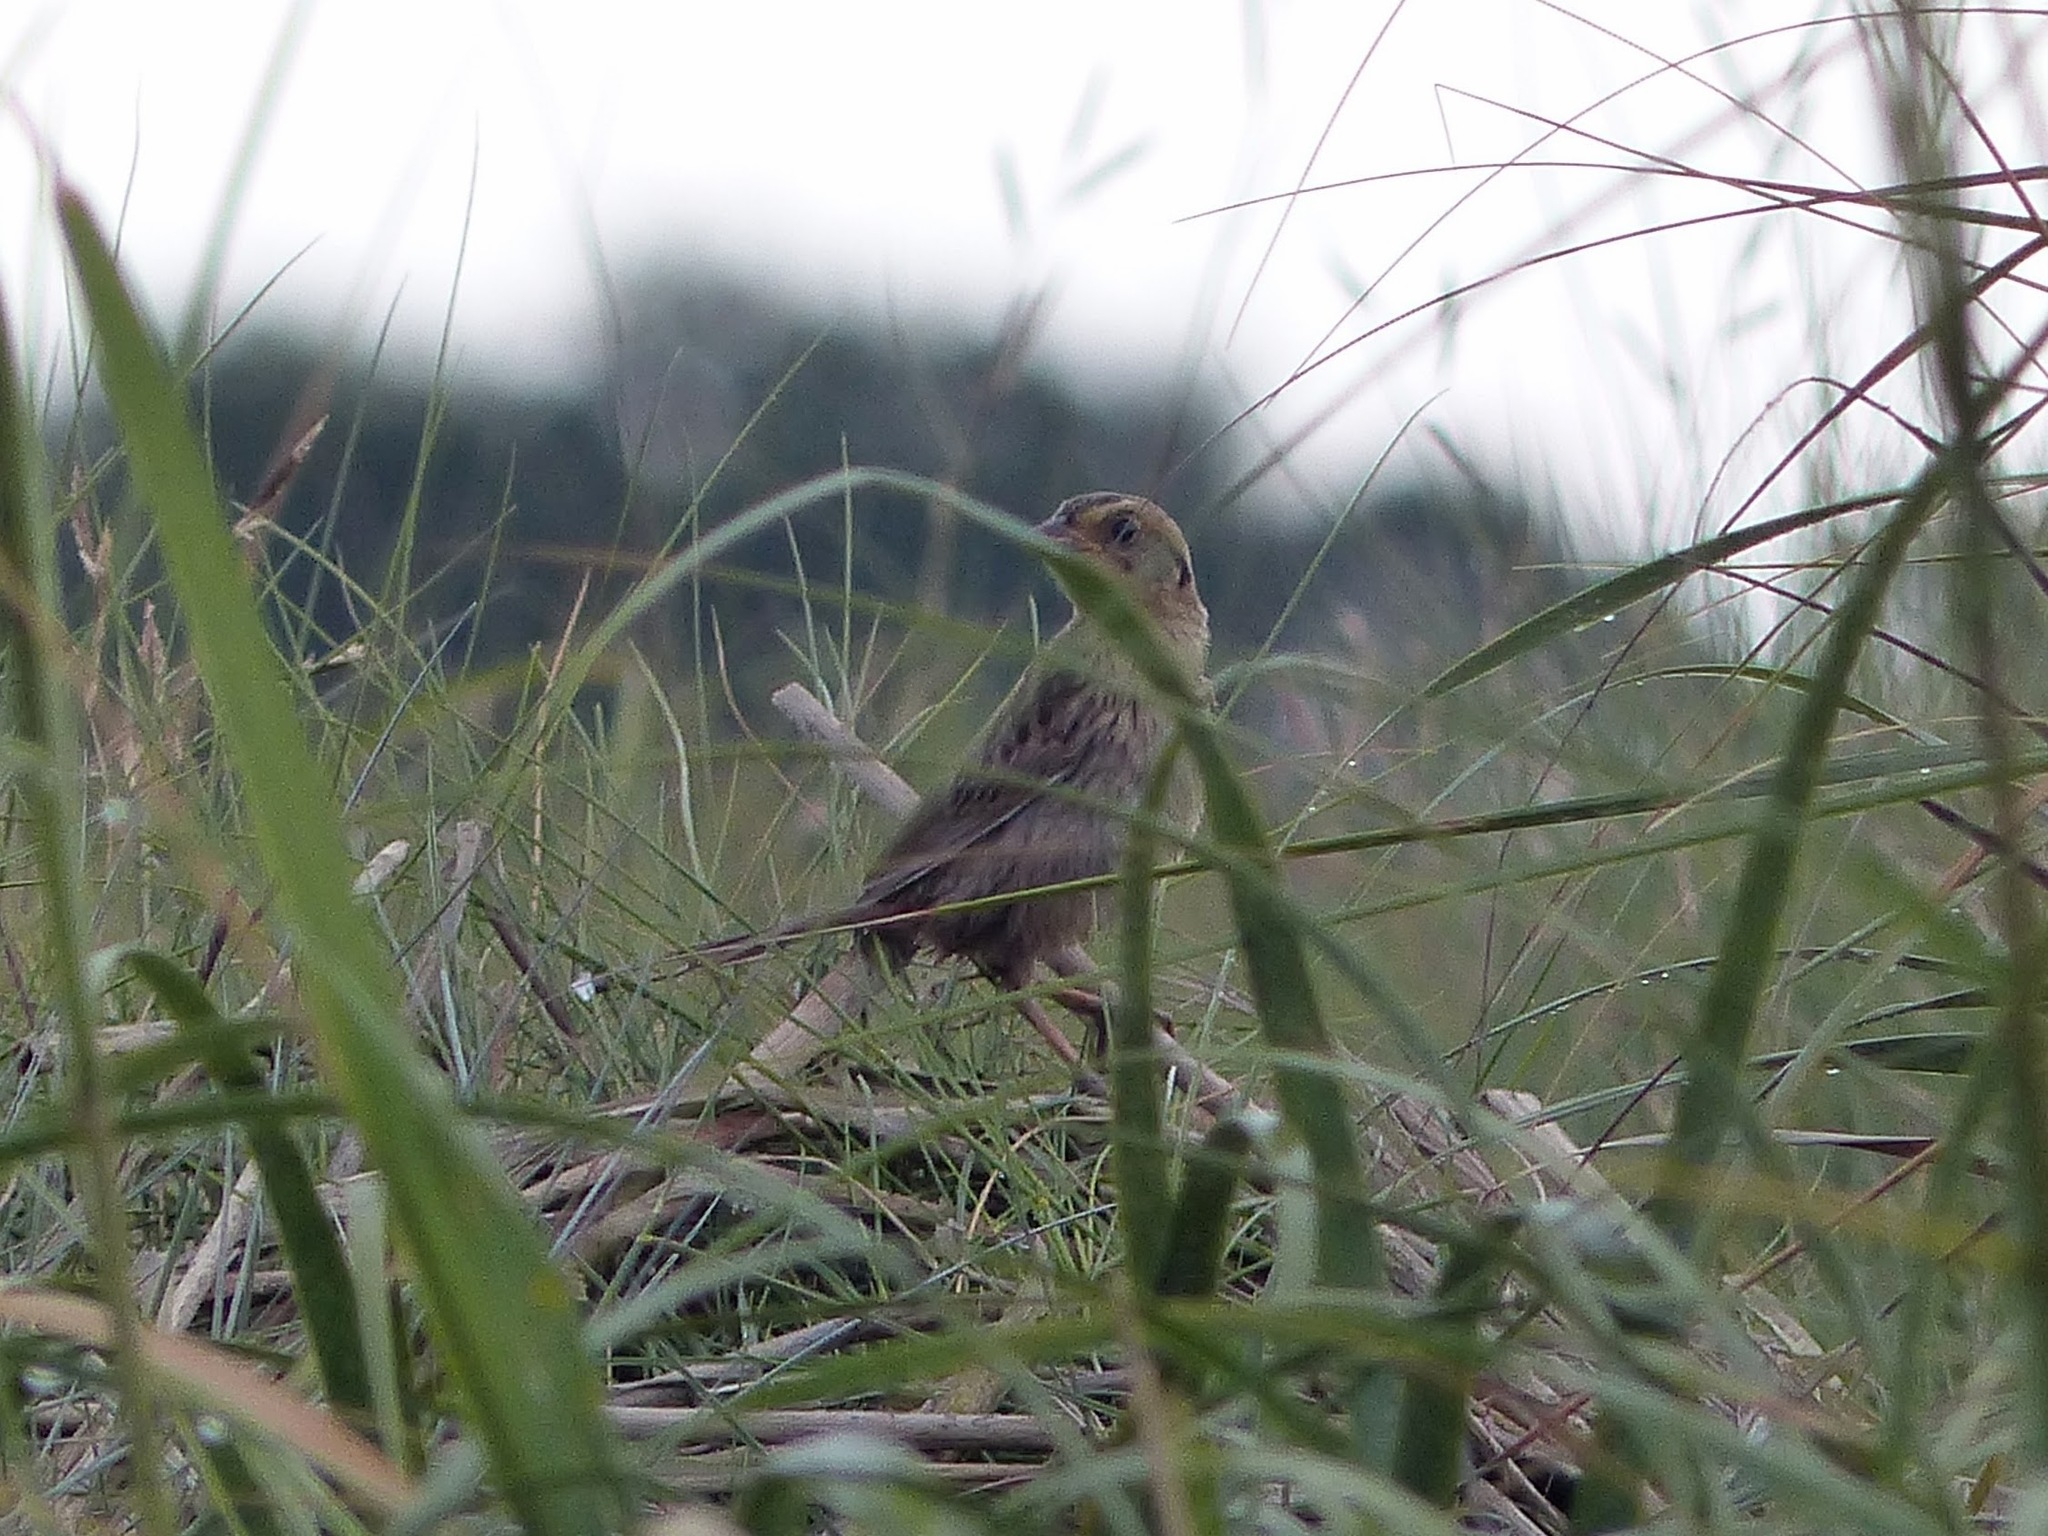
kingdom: Animalia
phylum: Chordata
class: Aves
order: Passeriformes
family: Passerellidae
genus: Ammospiza
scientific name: Ammospiza caudacuta
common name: Saltmarsh sparrow
